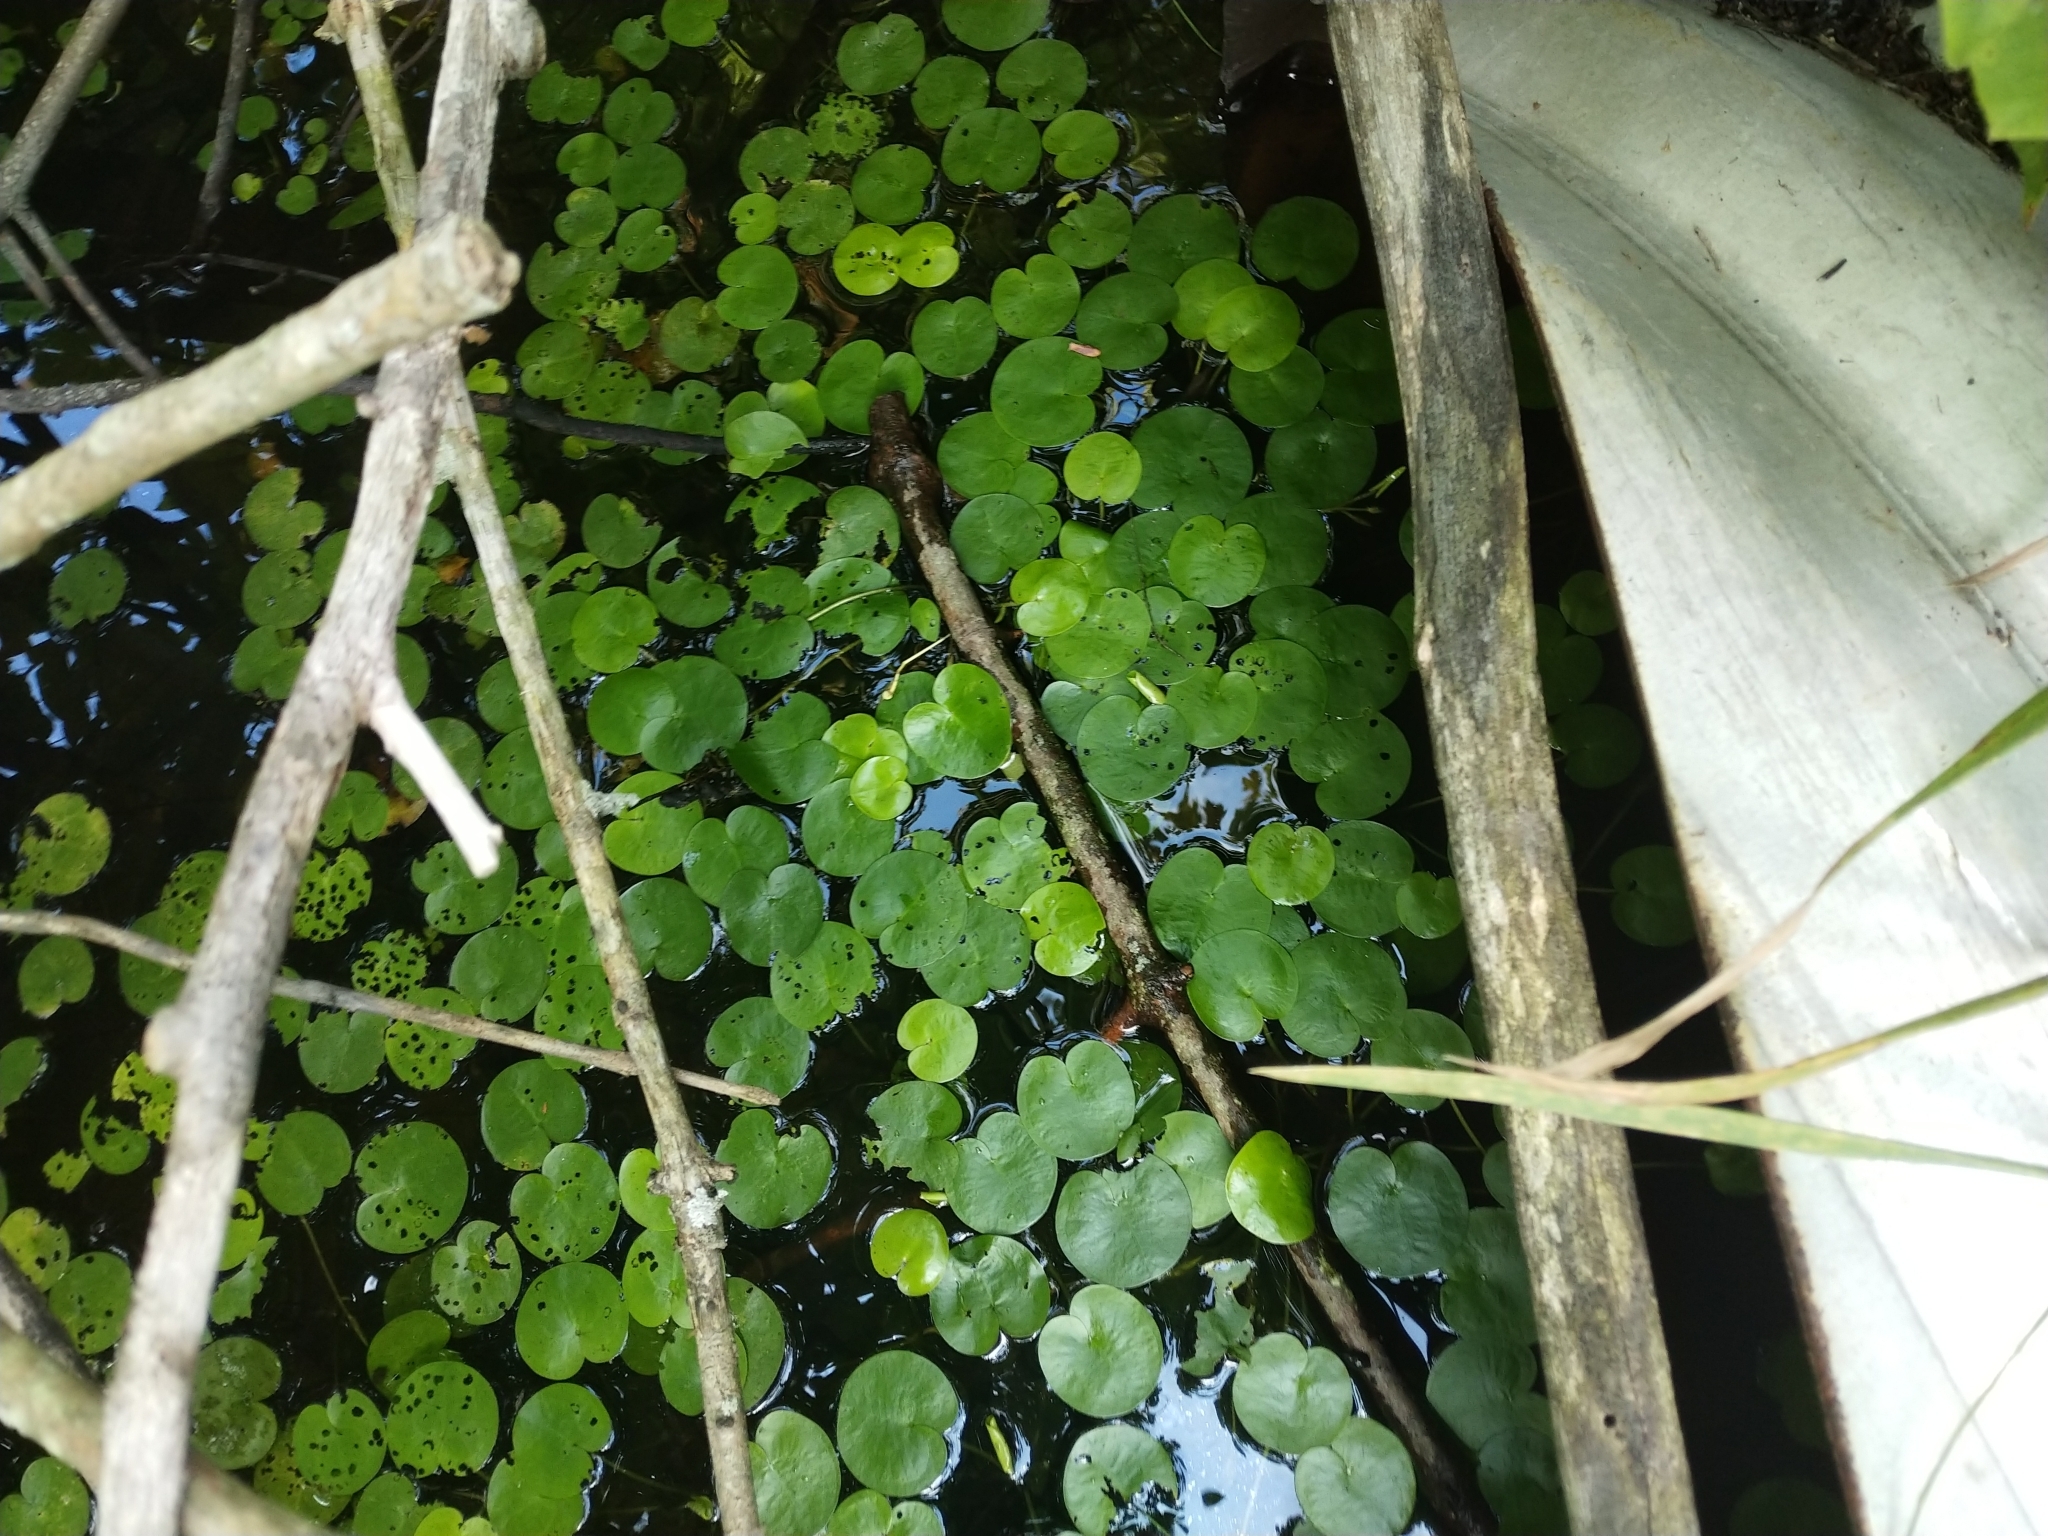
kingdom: Plantae
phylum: Tracheophyta
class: Liliopsida
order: Alismatales
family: Hydrocharitaceae
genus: Hydrocharis
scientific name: Hydrocharis morsus-ranae
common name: Frogbit
